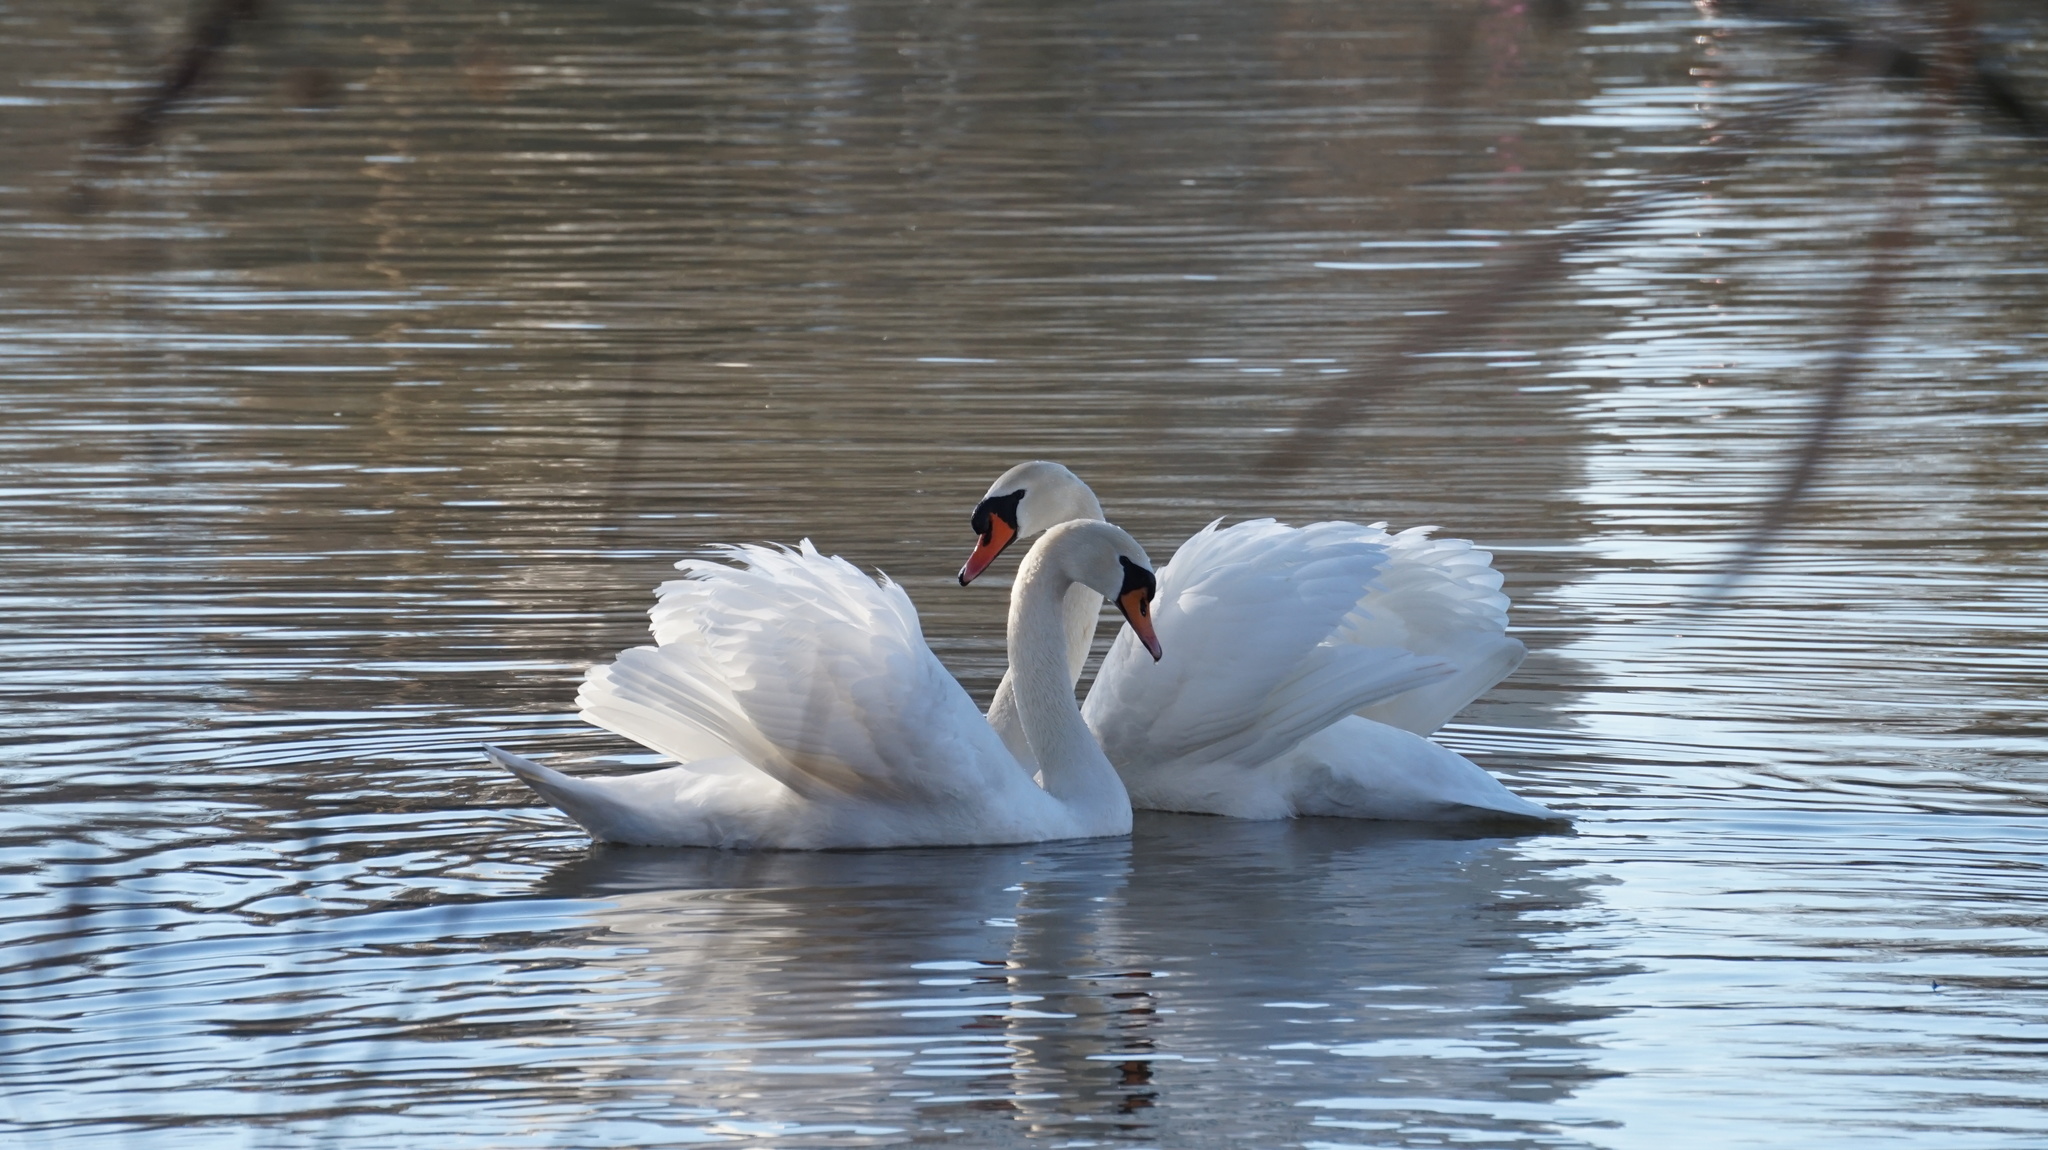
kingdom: Animalia
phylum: Chordata
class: Aves
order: Anseriformes
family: Anatidae
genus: Cygnus
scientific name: Cygnus olor
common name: Mute swan
